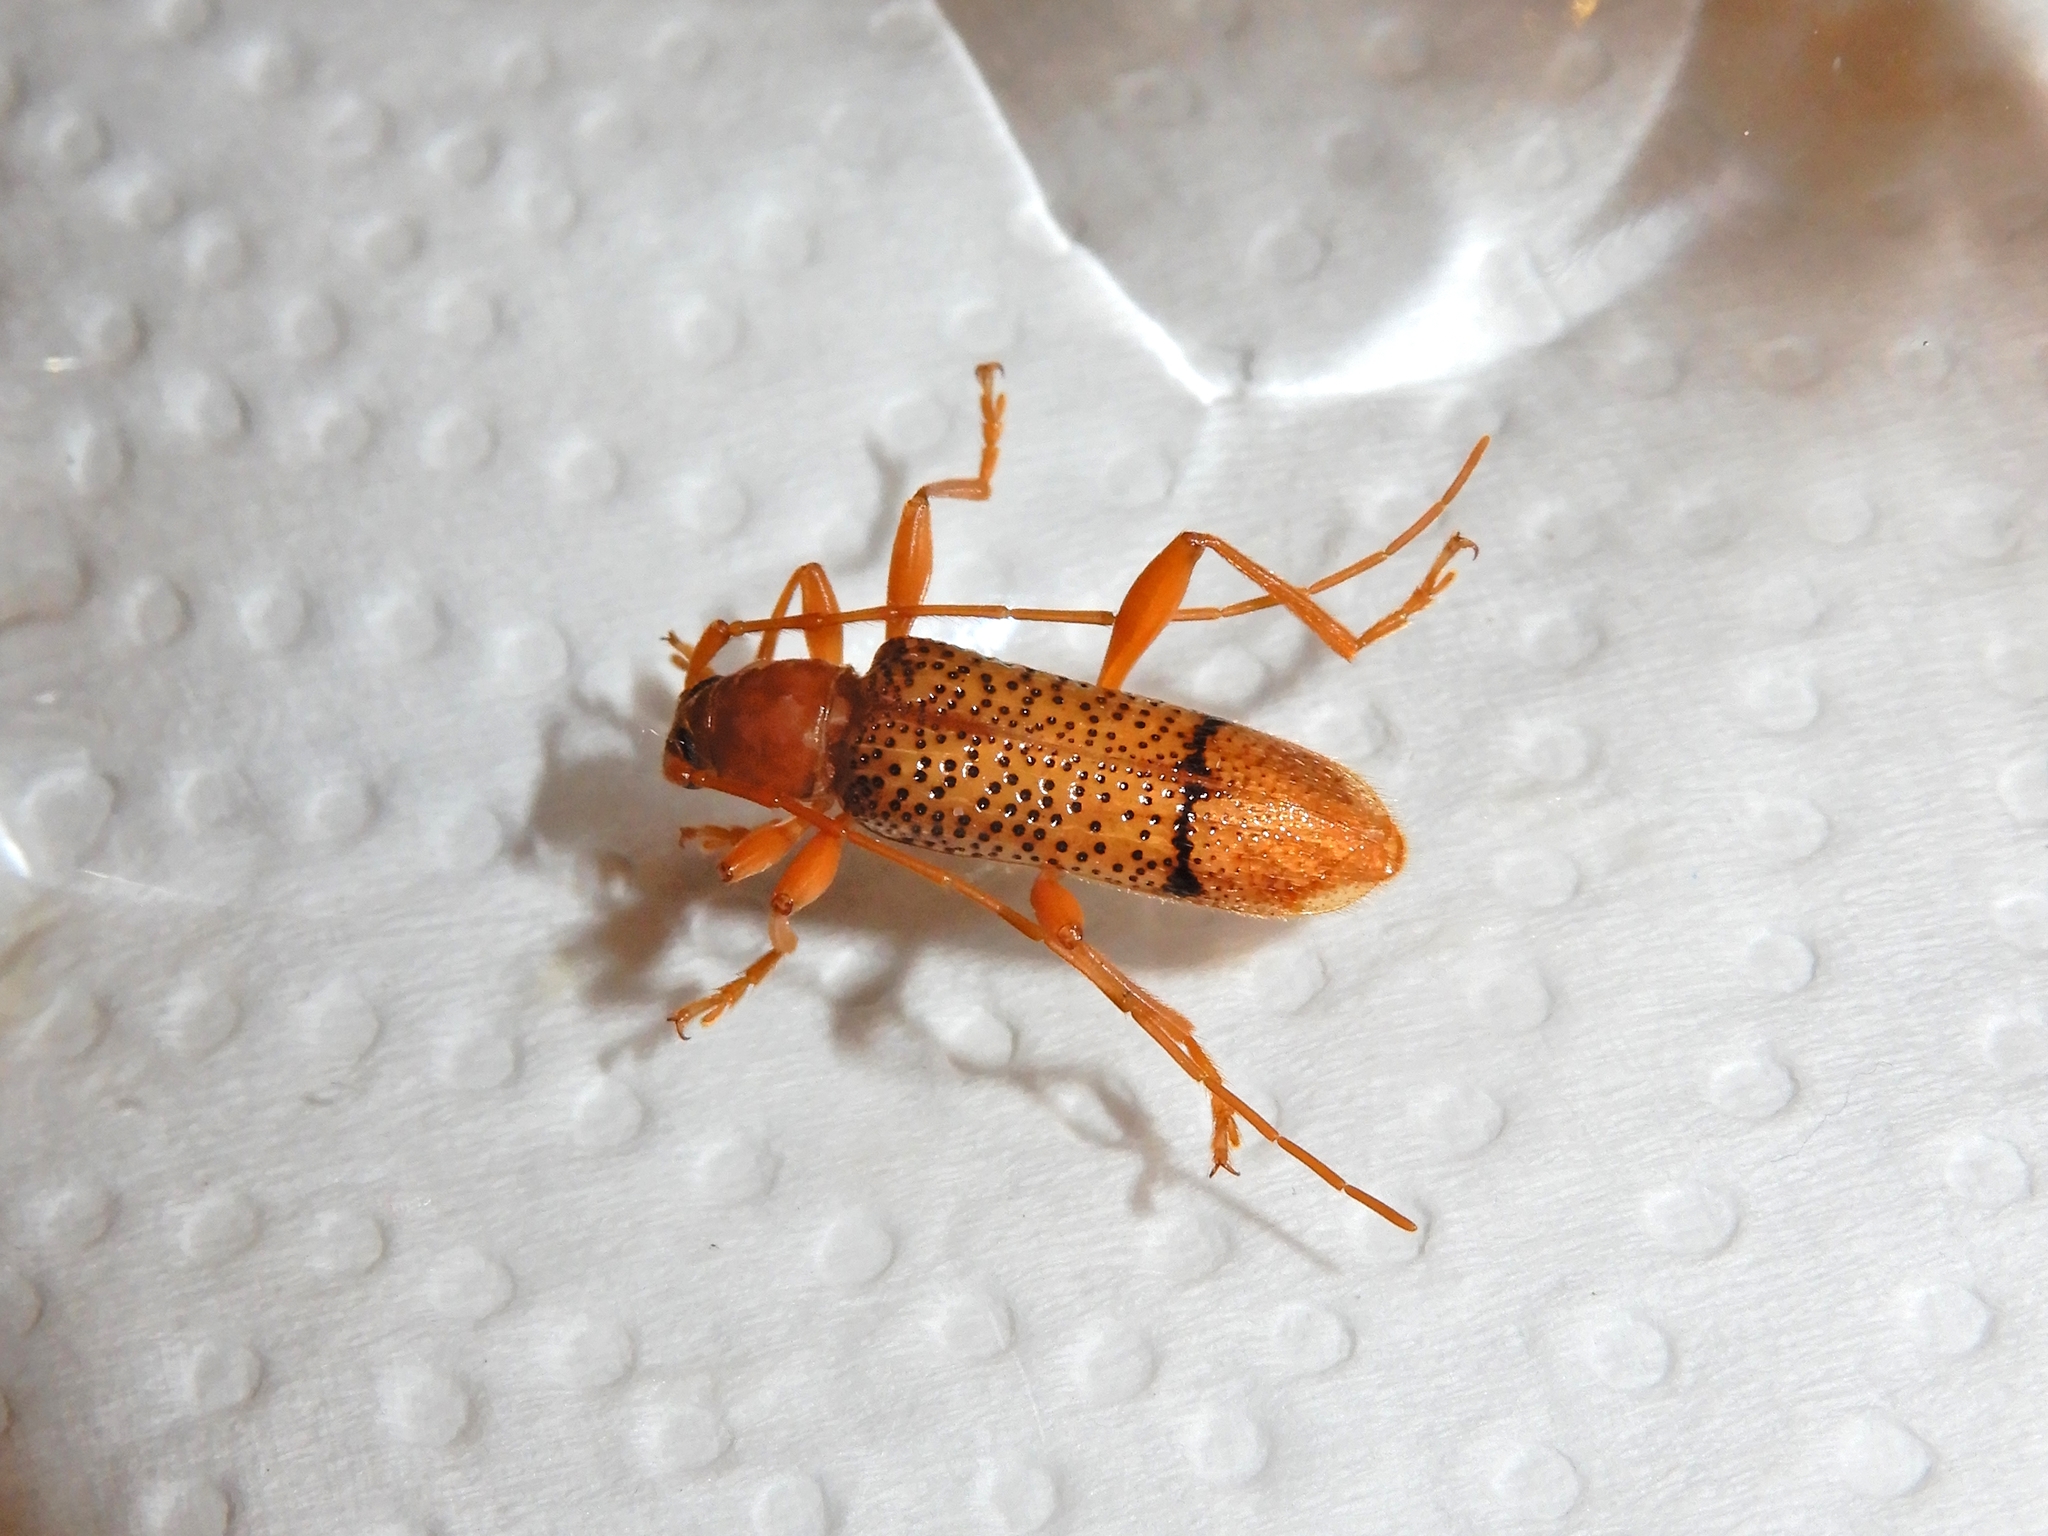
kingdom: Animalia
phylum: Arthropoda
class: Insecta
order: Coleoptera
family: Cerambycidae
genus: Xuthodes
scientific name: Xuthodes punctipennis
